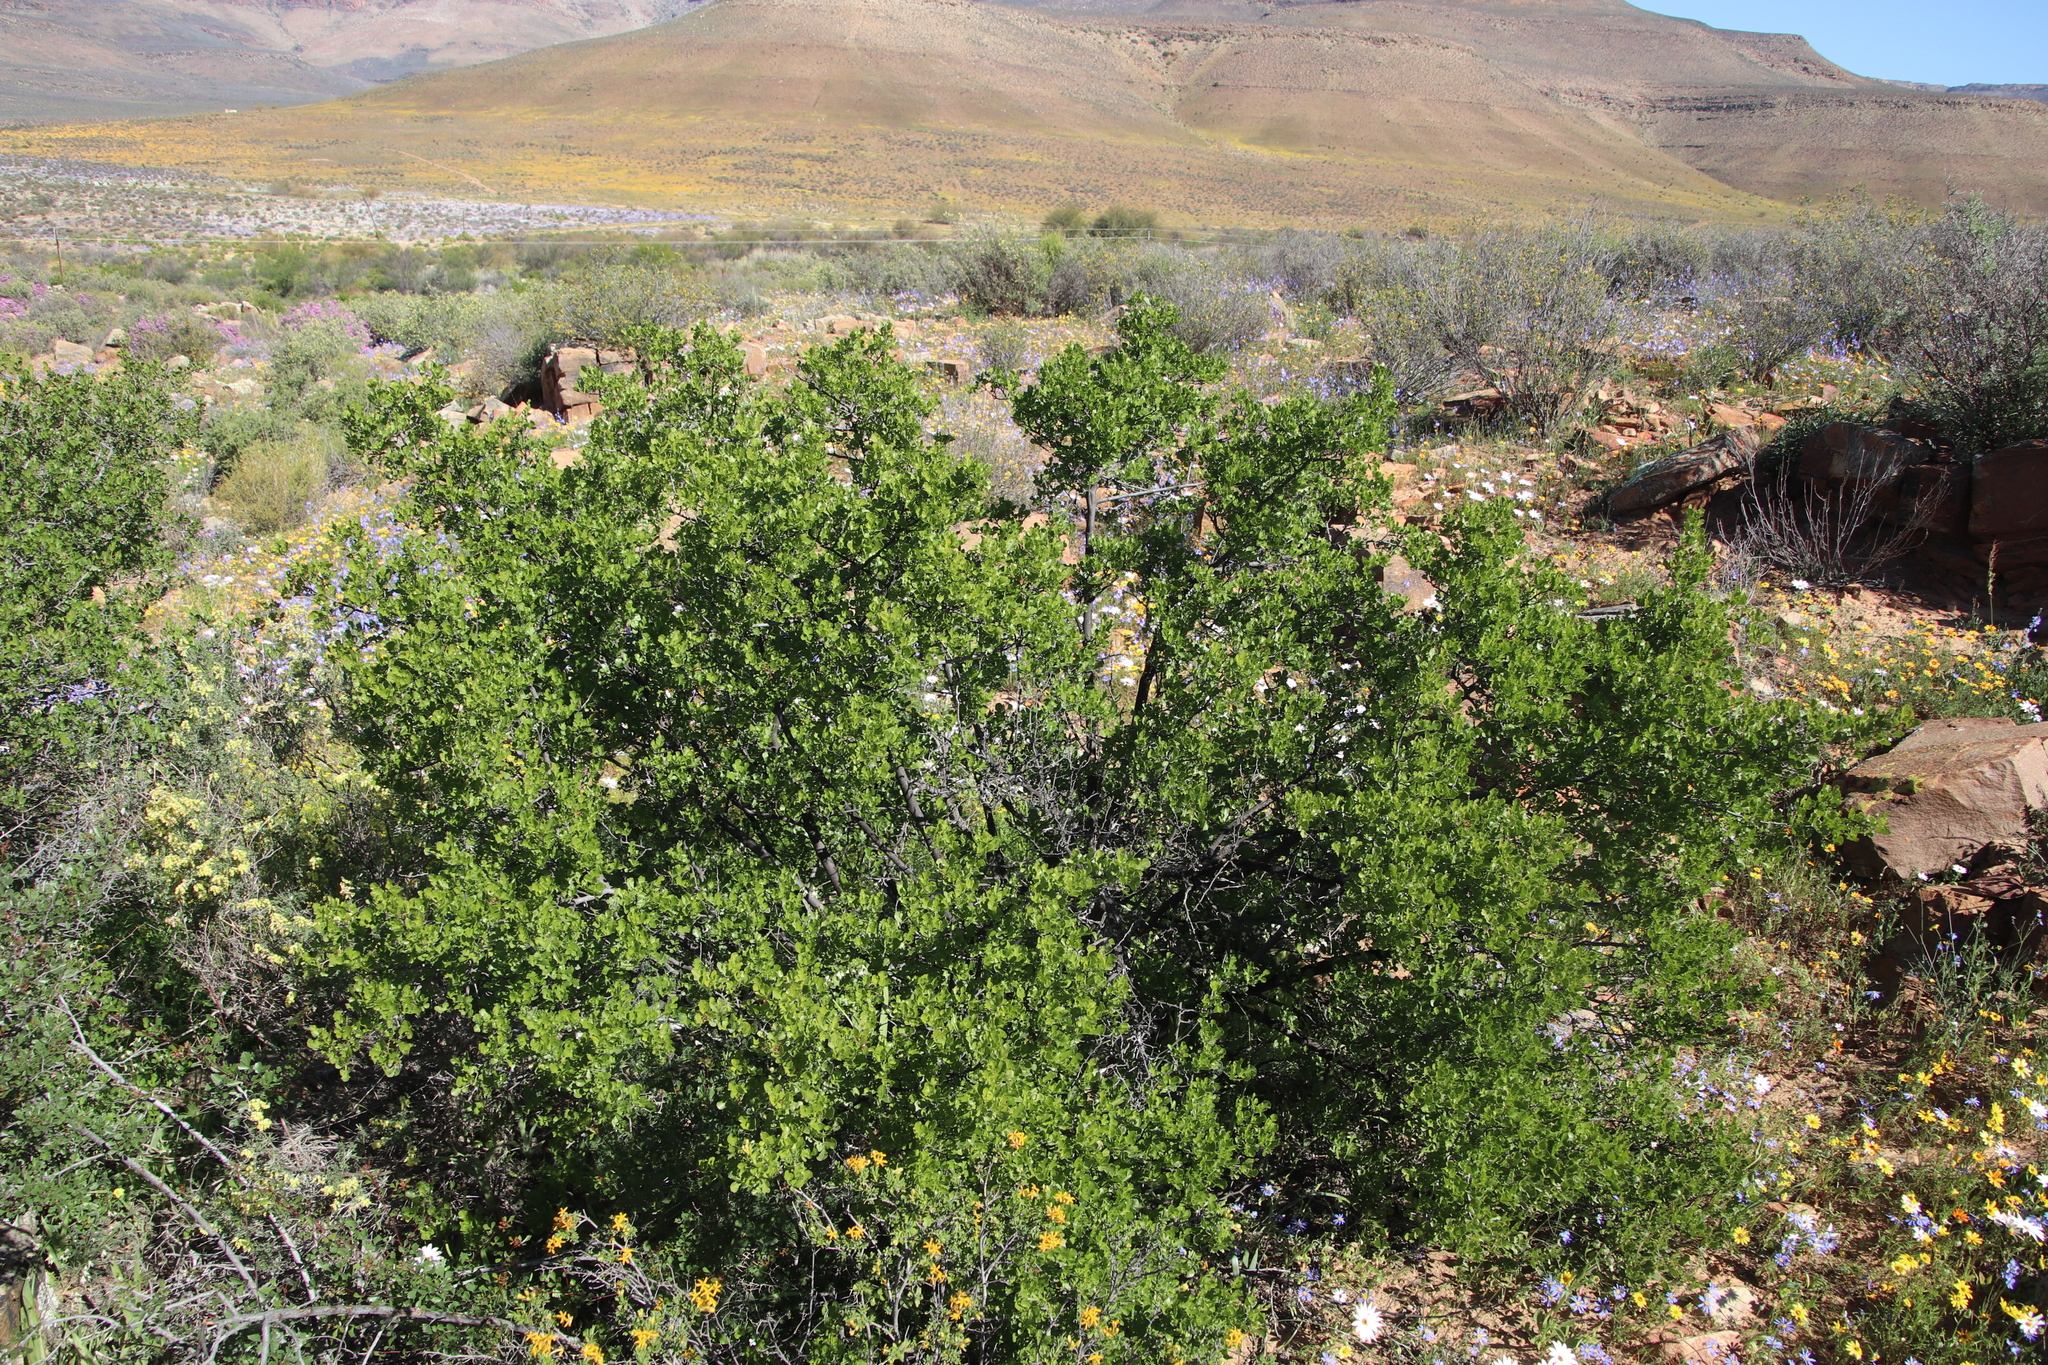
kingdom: Plantae
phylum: Tracheophyta
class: Magnoliopsida
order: Sapindales
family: Anacardiaceae
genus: Searsia
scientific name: Searsia undulata
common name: Namaqua kunibush
